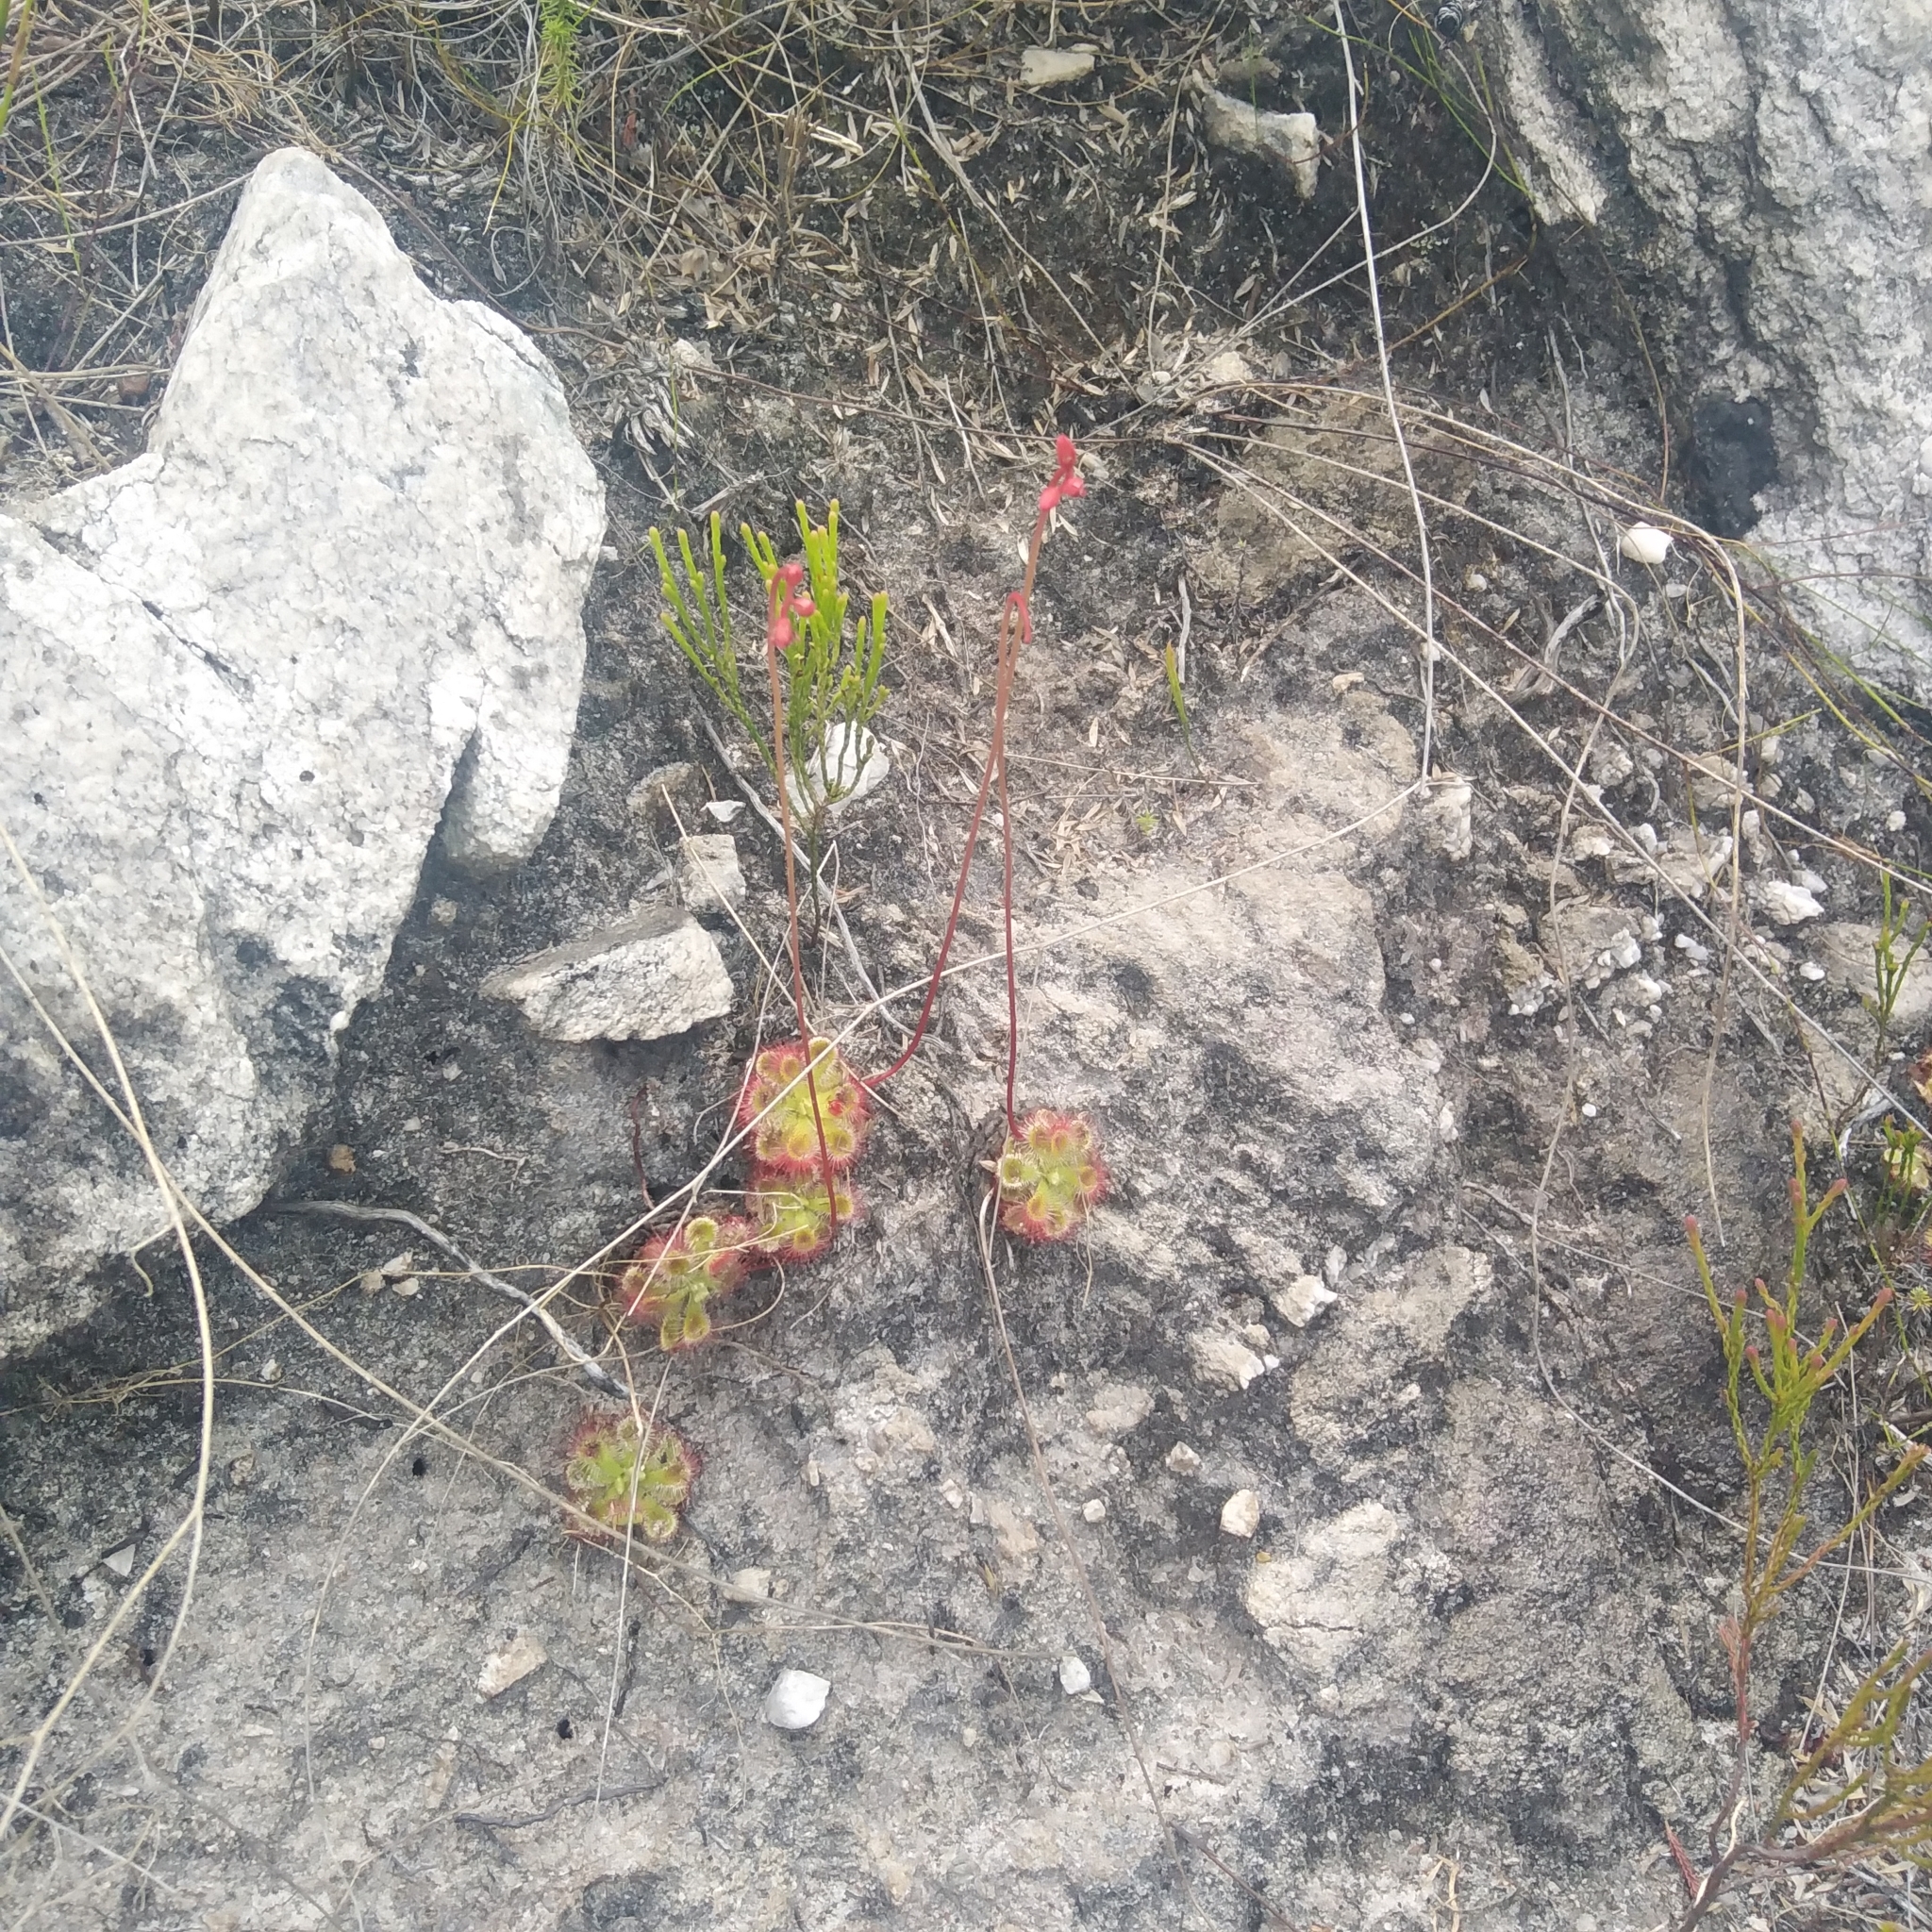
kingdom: Plantae
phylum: Tracheophyta
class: Magnoliopsida
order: Caryophyllales
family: Droseraceae
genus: Drosera
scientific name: Drosera xerophila
